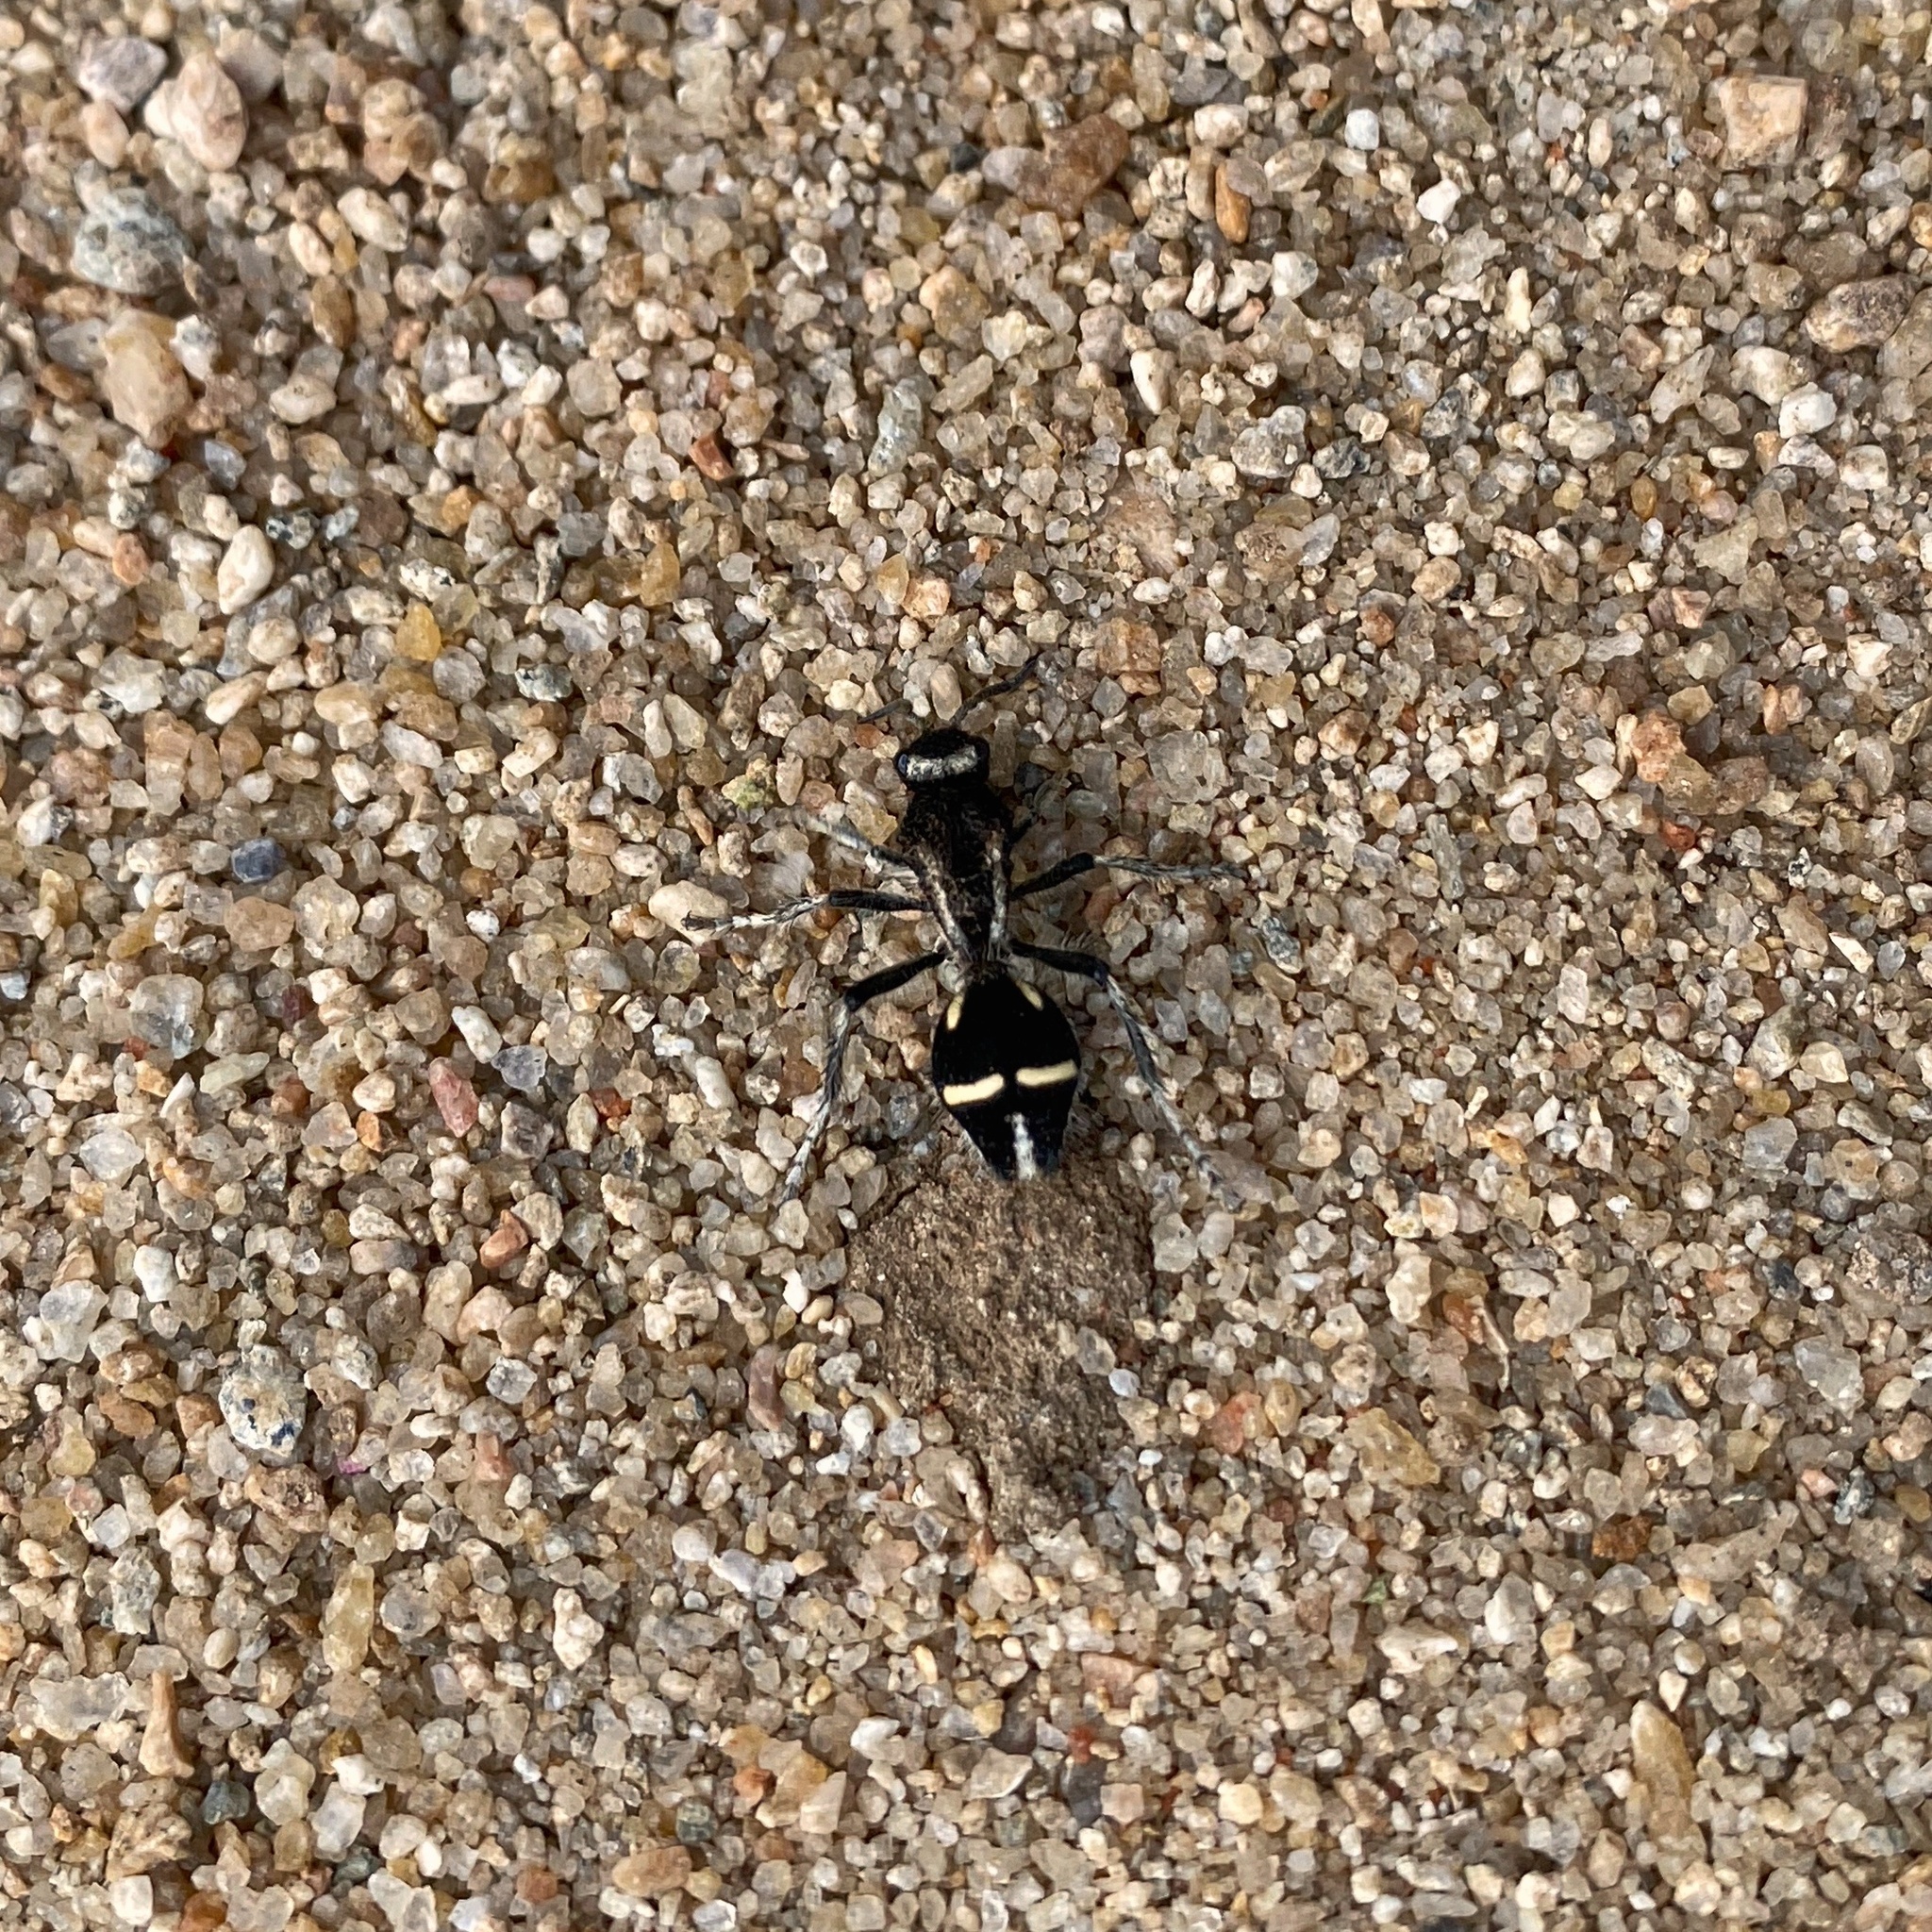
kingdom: Animalia
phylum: Arthropoda
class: Insecta
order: Hymenoptera
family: Mutillidae
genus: Traumatomutilla
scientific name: Traumatomutilla indica
